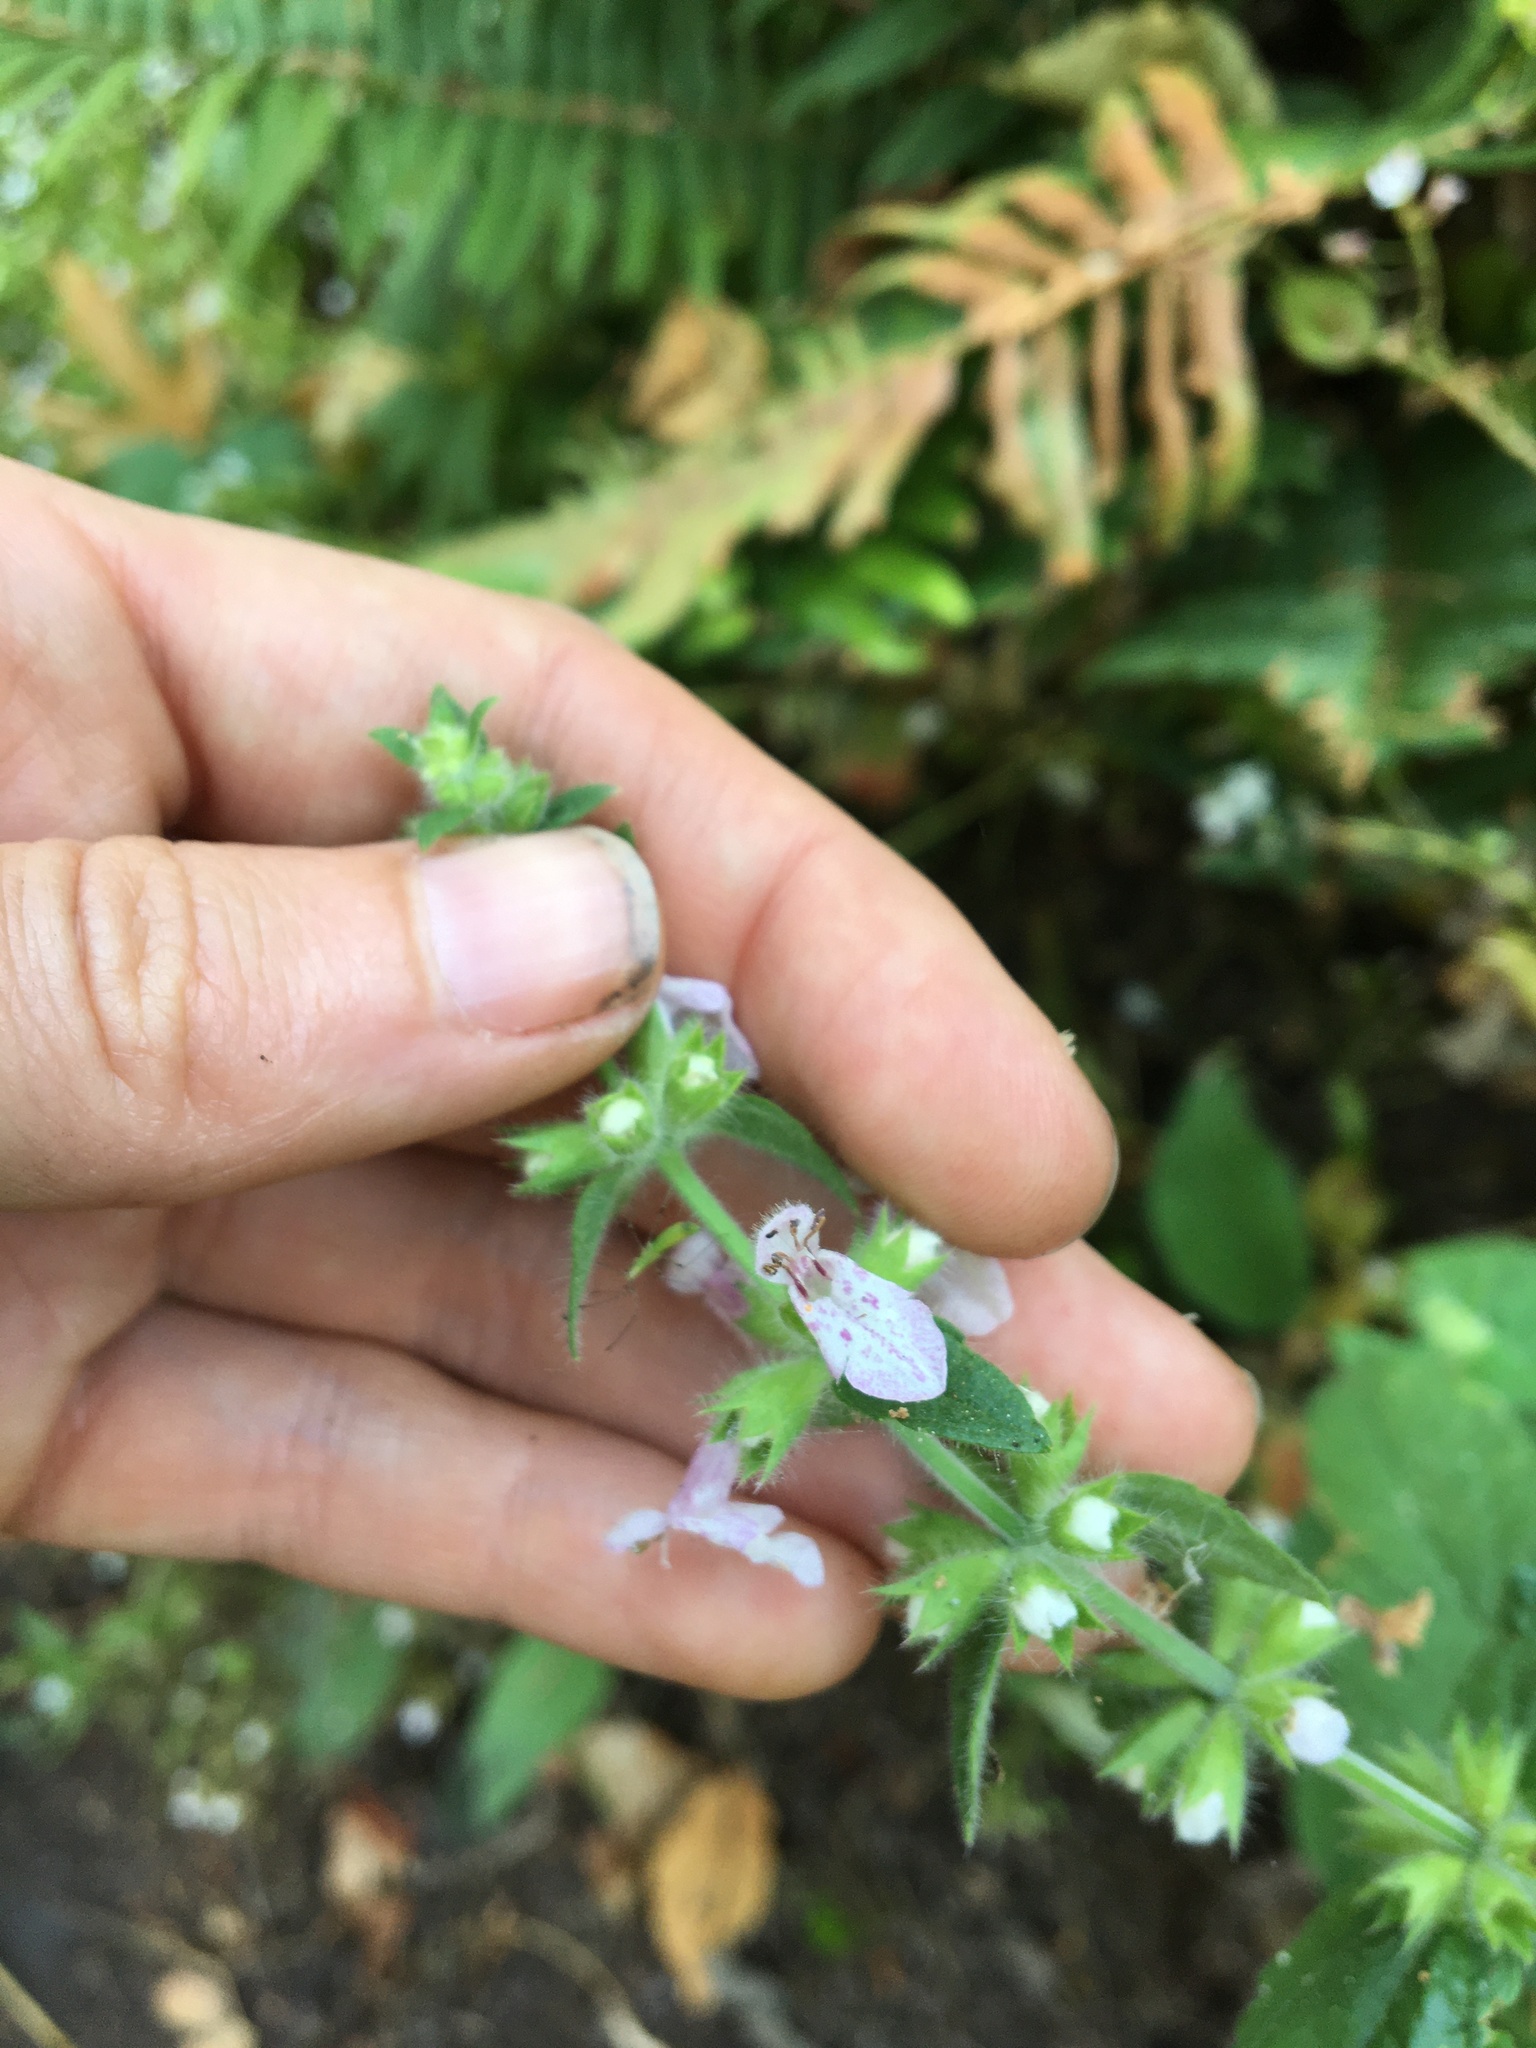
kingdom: Plantae
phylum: Tracheophyta
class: Magnoliopsida
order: Lamiales
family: Lamiaceae
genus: Stachys
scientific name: Stachys rigida
